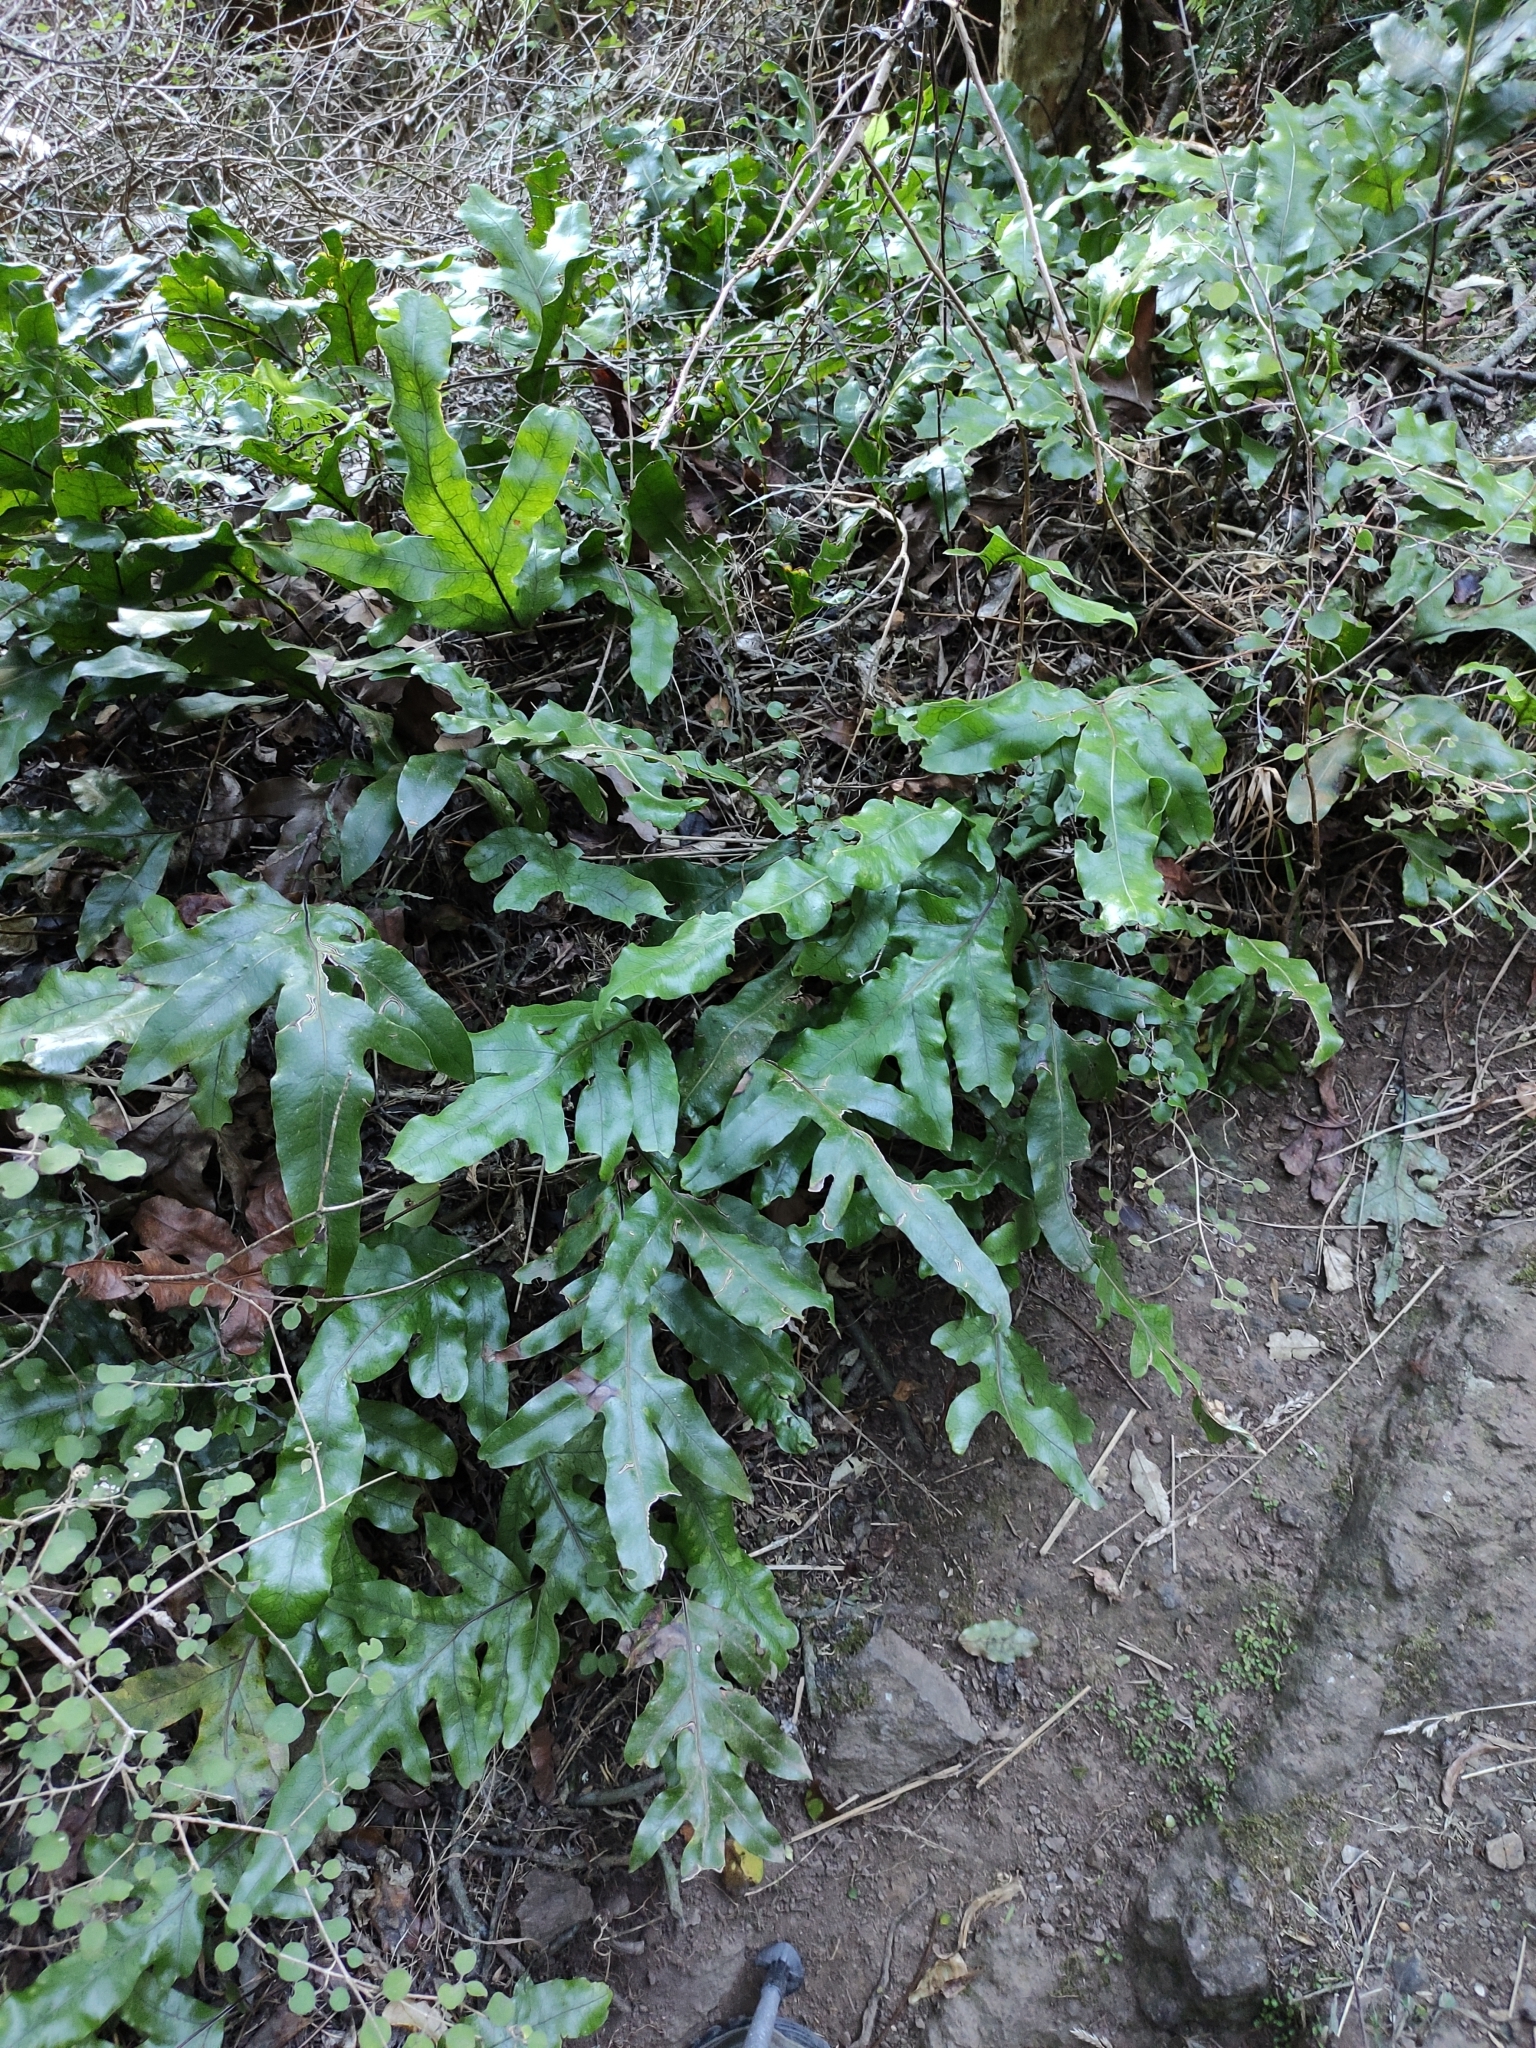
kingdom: Plantae
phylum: Tracheophyta
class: Polypodiopsida
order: Polypodiales
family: Polypodiaceae
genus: Lecanopteris
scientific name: Lecanopteris pustulata
